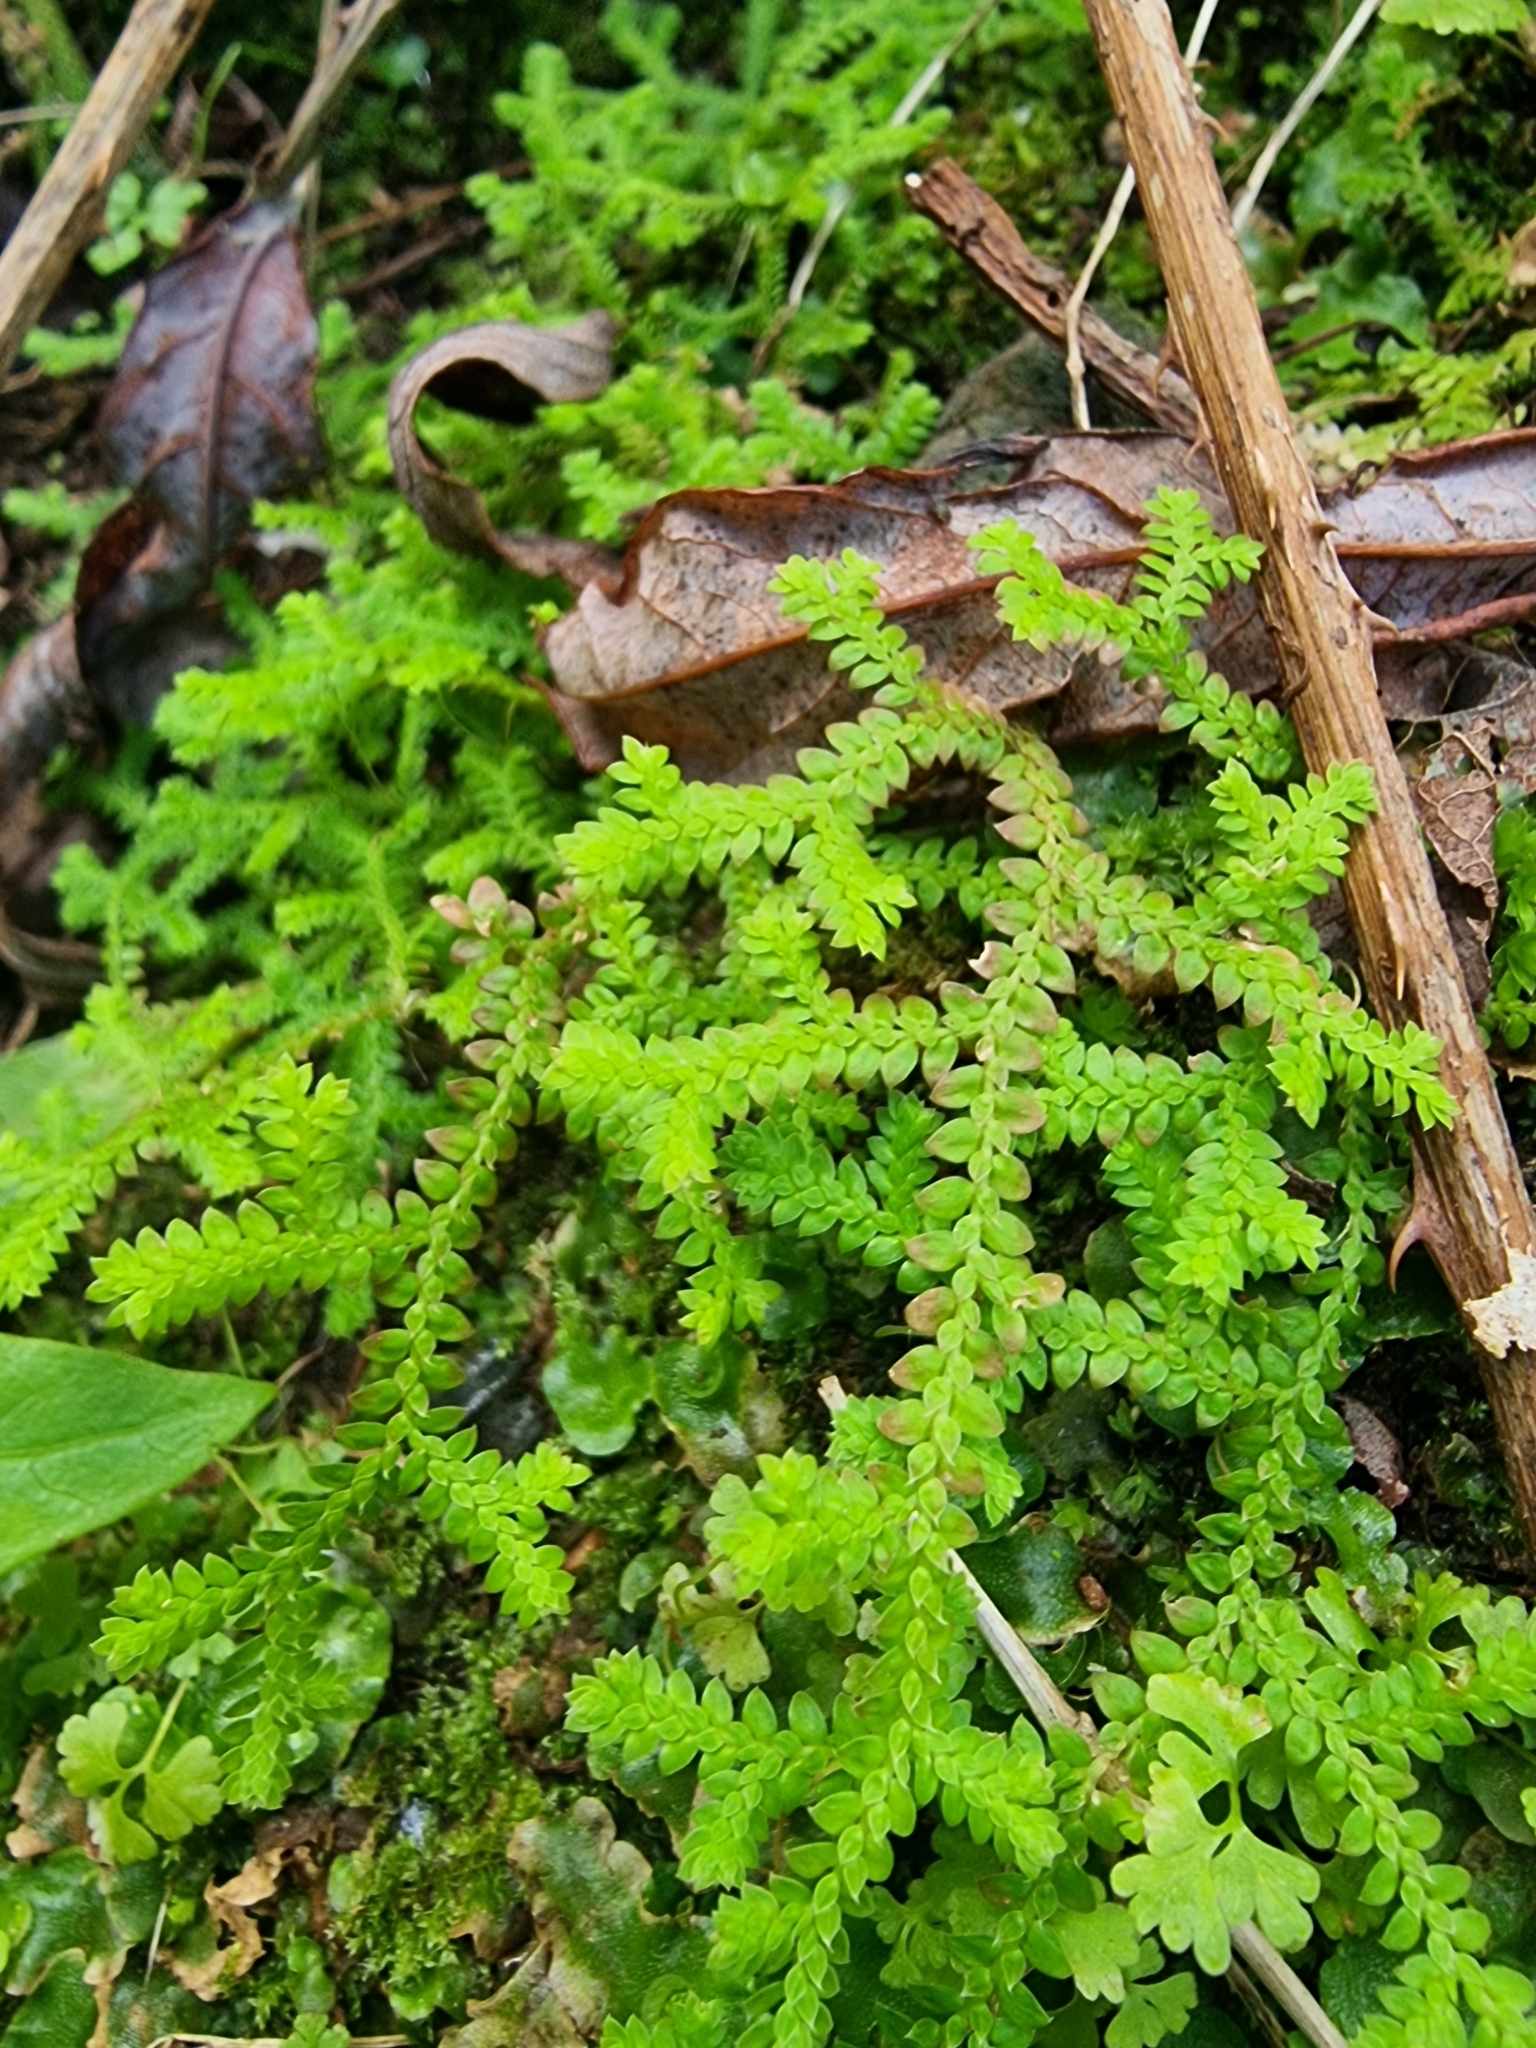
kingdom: Plantae
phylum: Tracheophyta
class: Lycopodiopsida
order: Selaginellales
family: Selaginellaceae
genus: Selaginella
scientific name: Selaginella denticulata
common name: Toothed-leaved clubmoss
